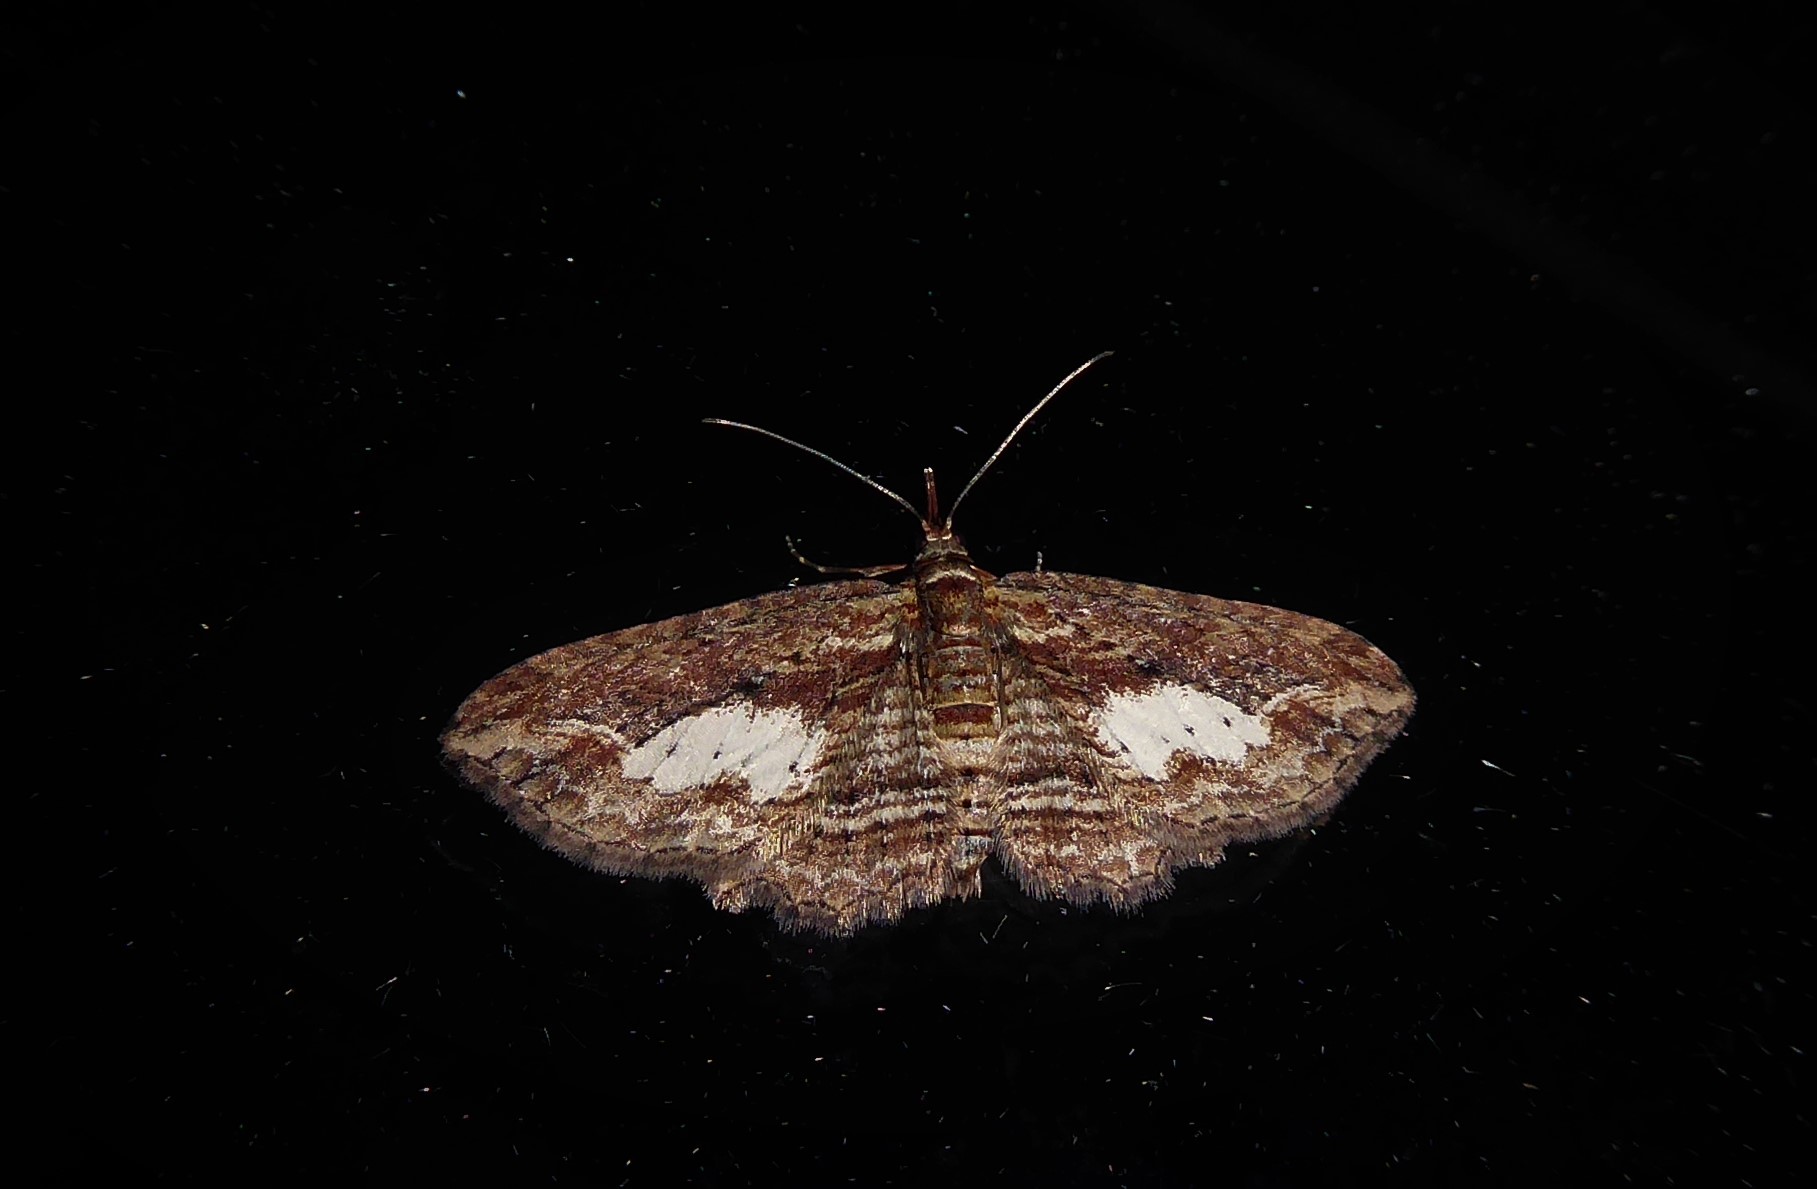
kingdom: Animalia
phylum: Arthropoda
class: Insecta
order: Lepidoptera
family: Geometridae
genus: Chloroclystis
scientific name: Chloroclystis filata
